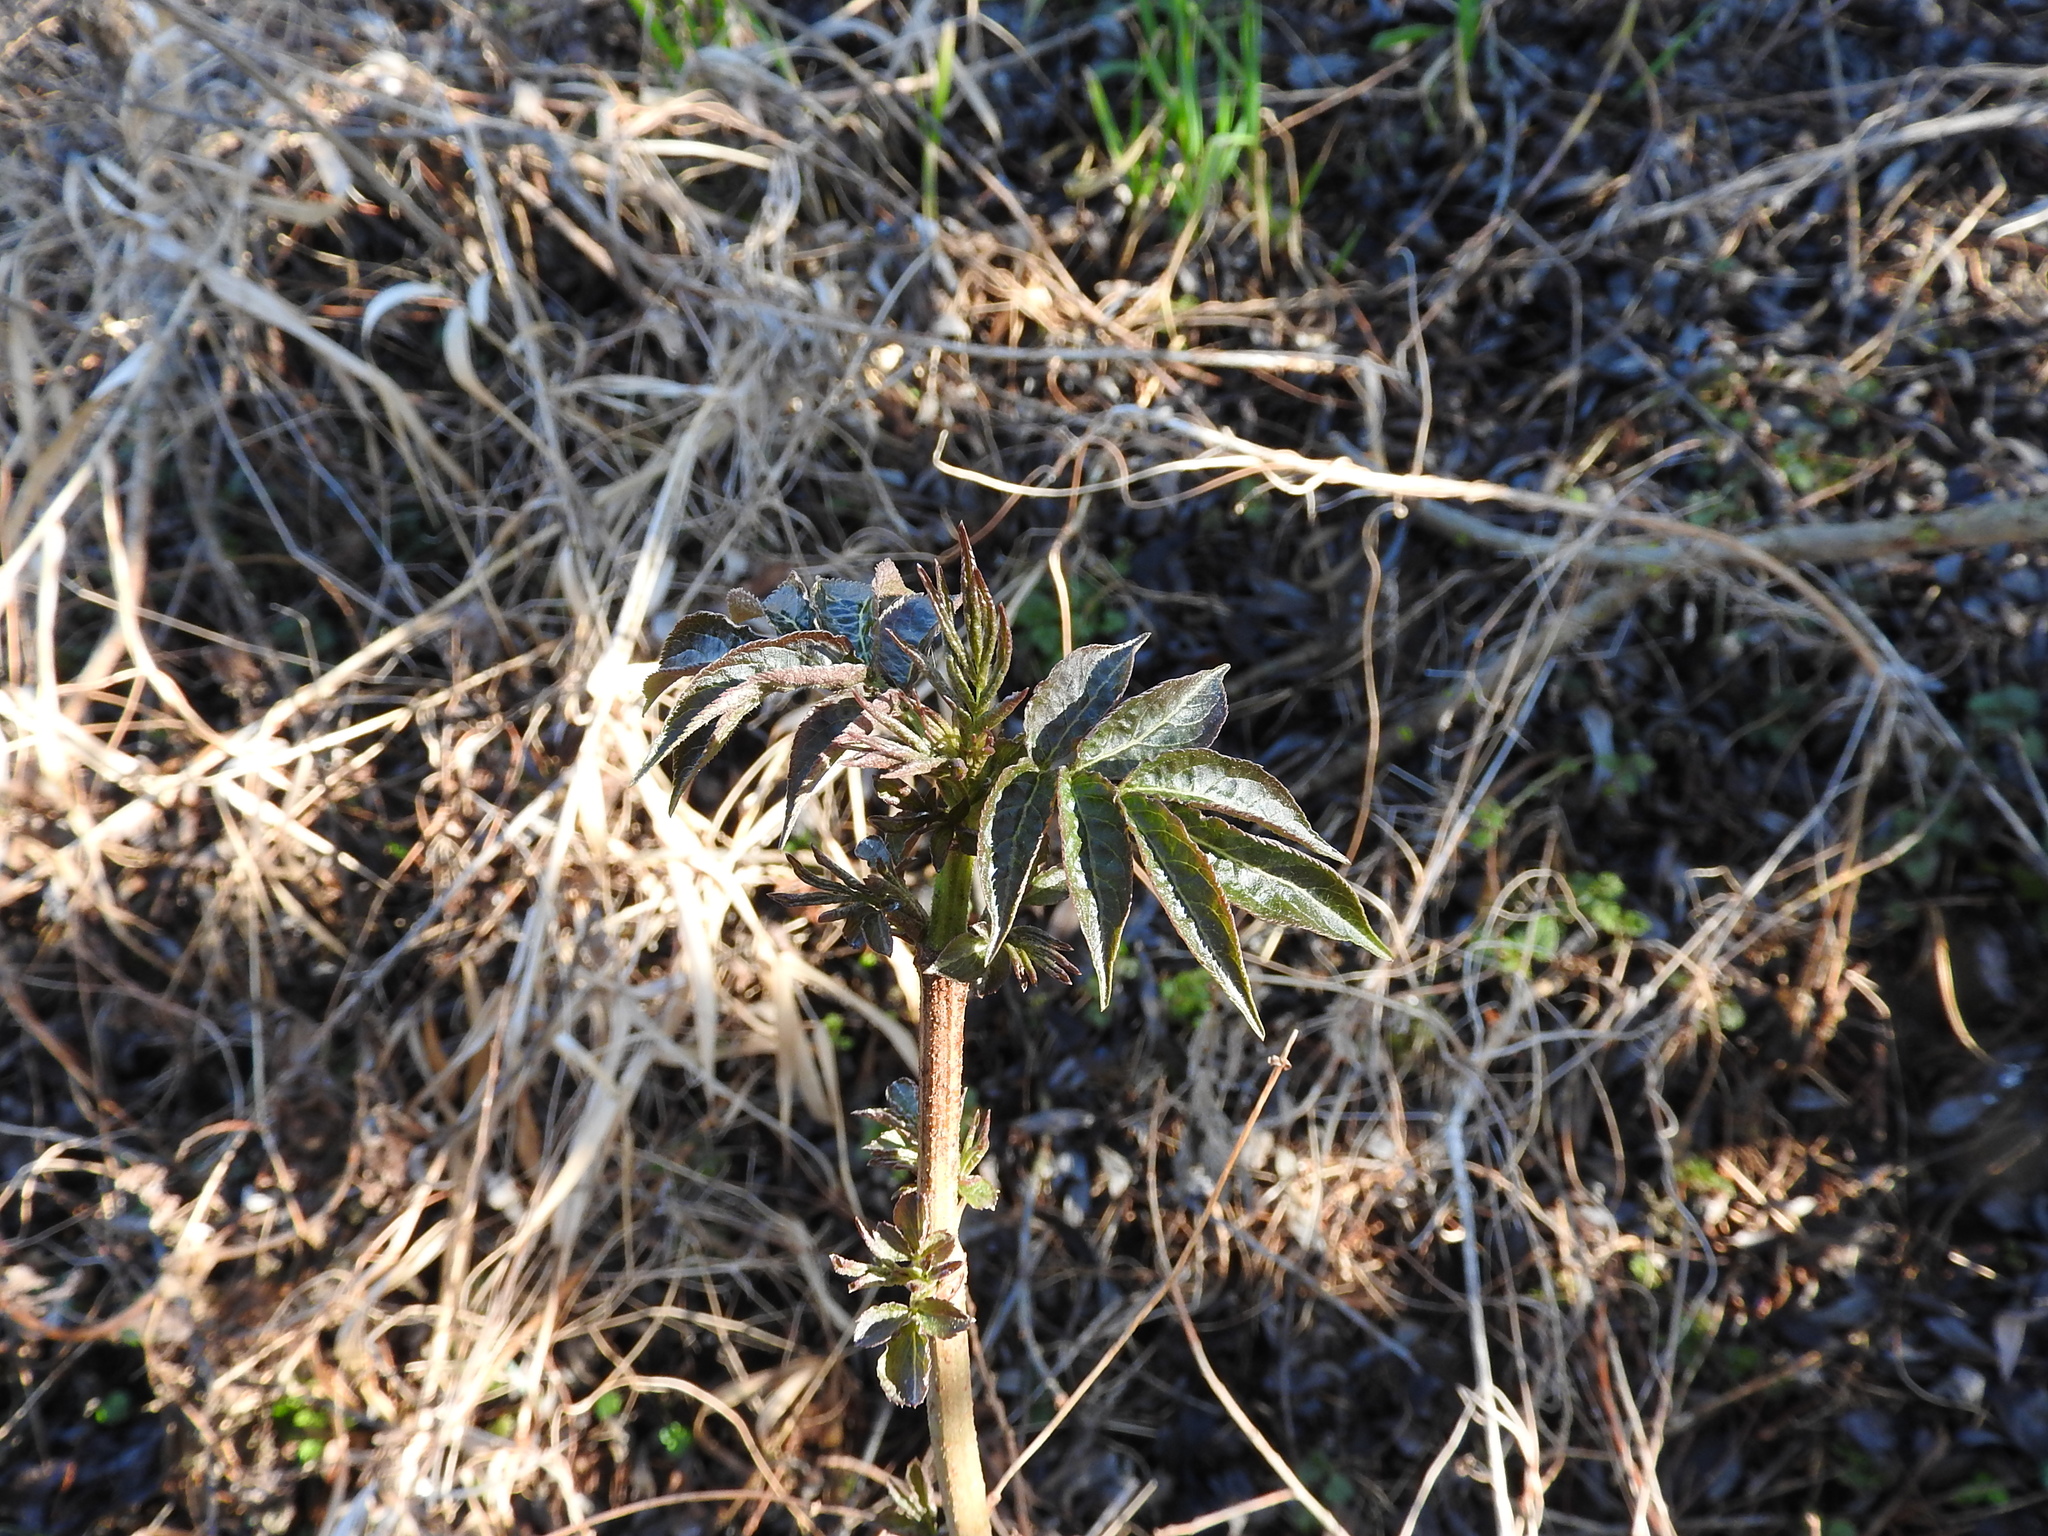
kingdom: Plantae
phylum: Tracheophyta
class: Magnoliopsida
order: Dipsacales
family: Viburnaceae
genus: Sambucus
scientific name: Sambucus nigra
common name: Elder
